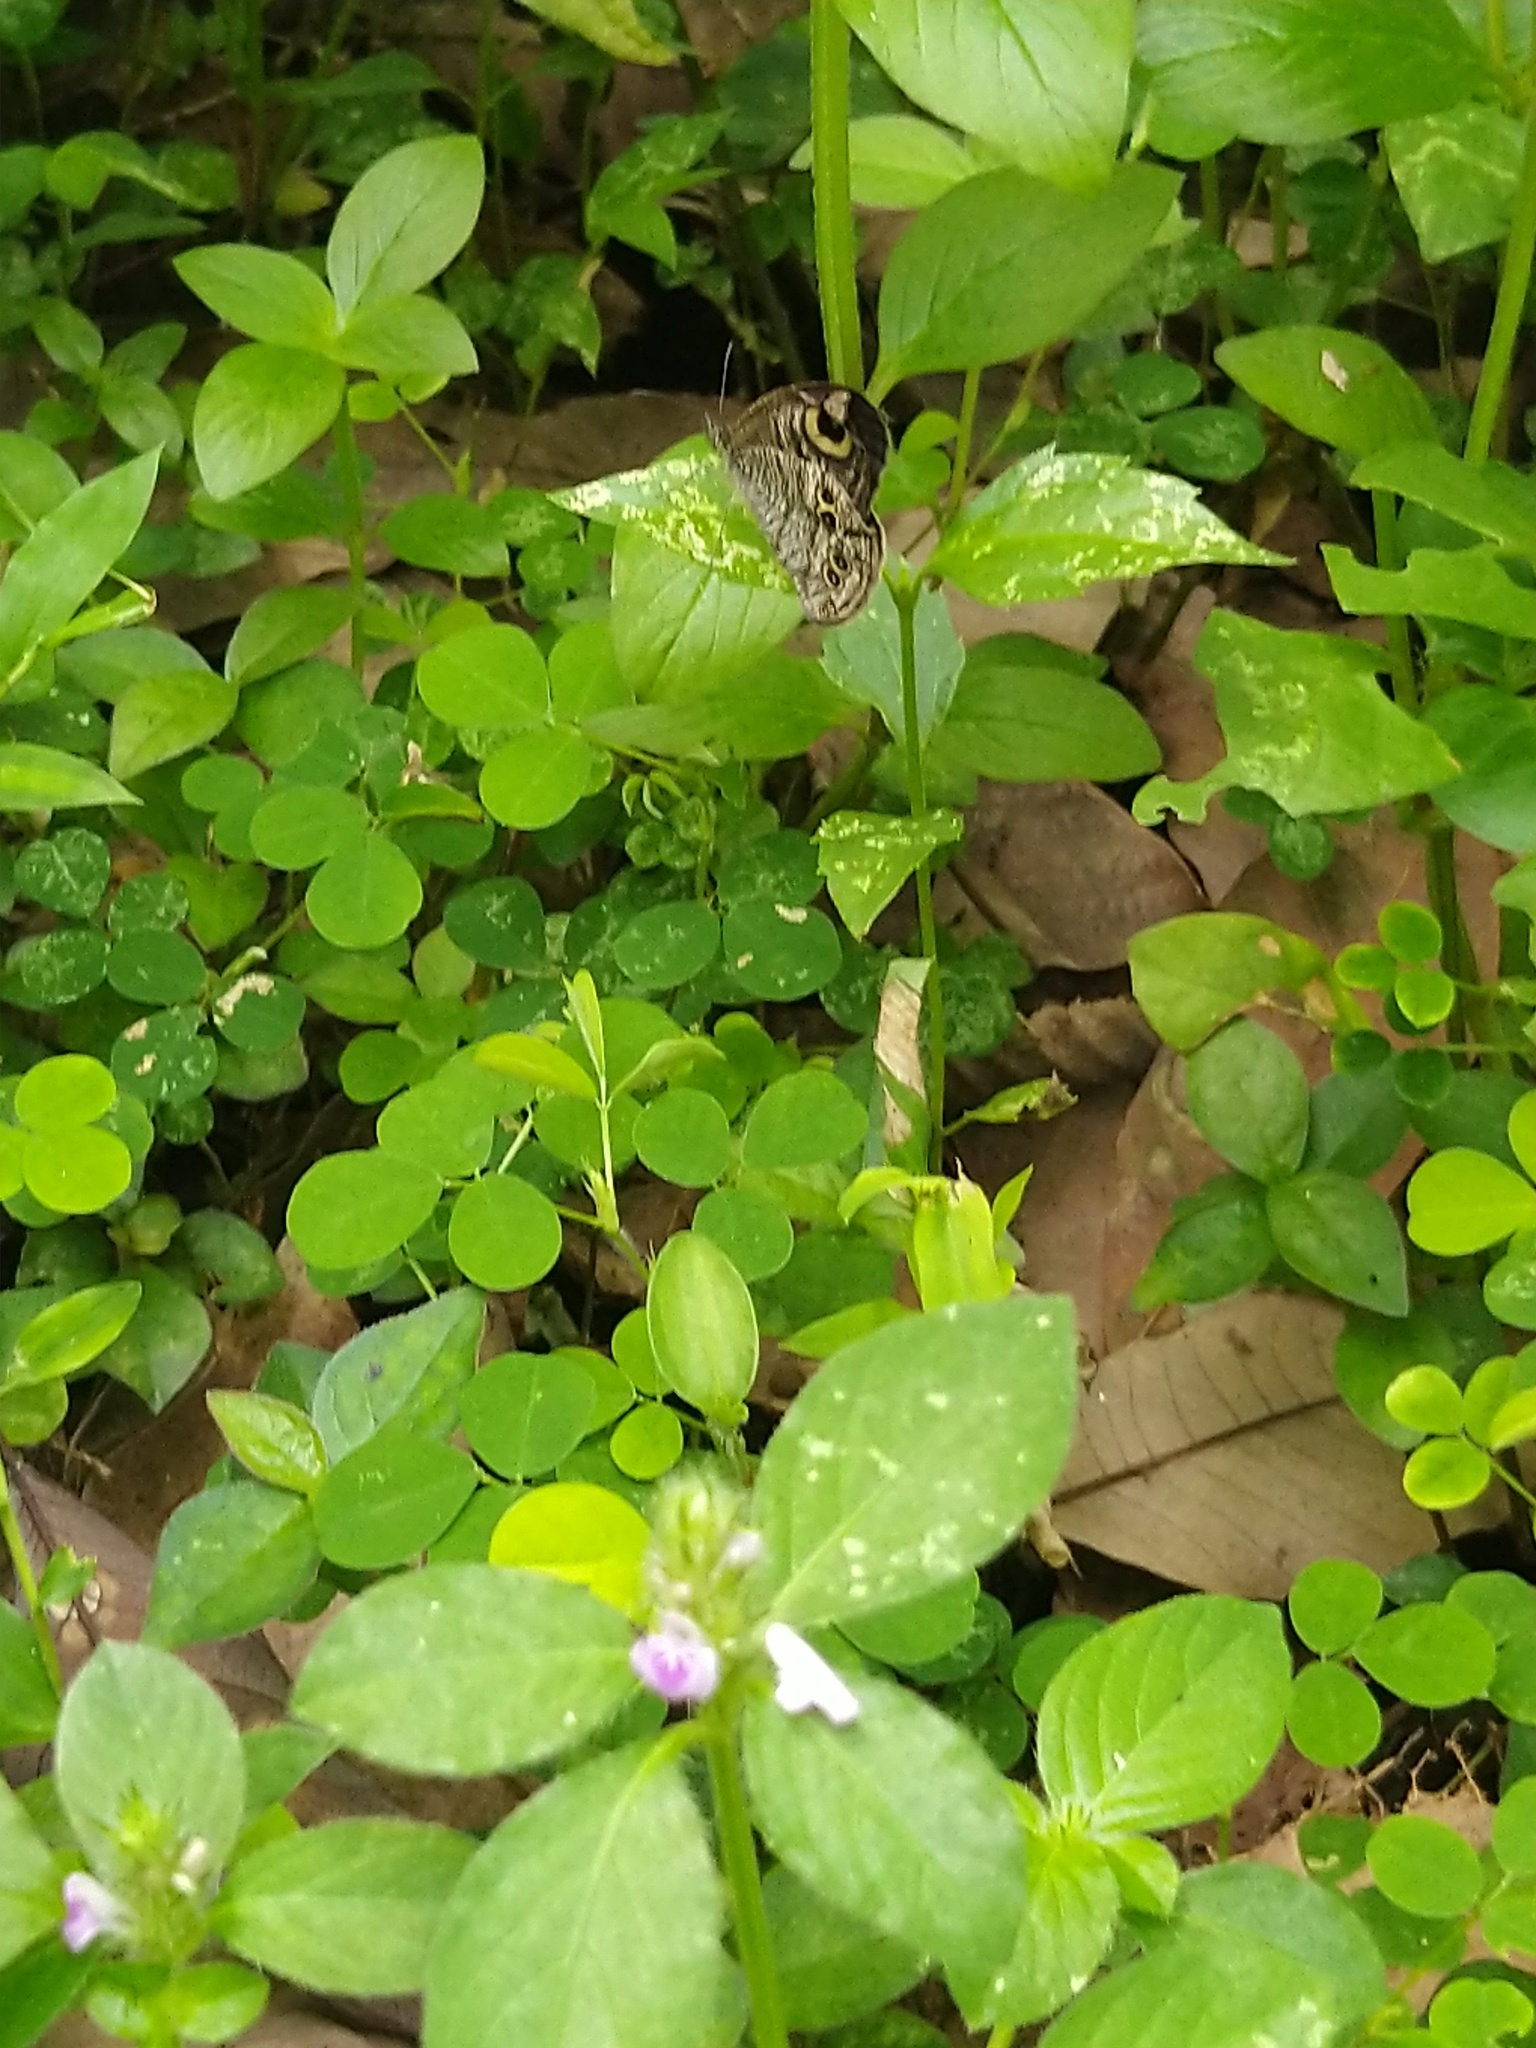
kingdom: Animalia
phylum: Arthropoda
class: Insecta
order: Lepidoptera
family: Nymphalidae
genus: Ypthima
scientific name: Ypthima baldus
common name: Common five-ring
